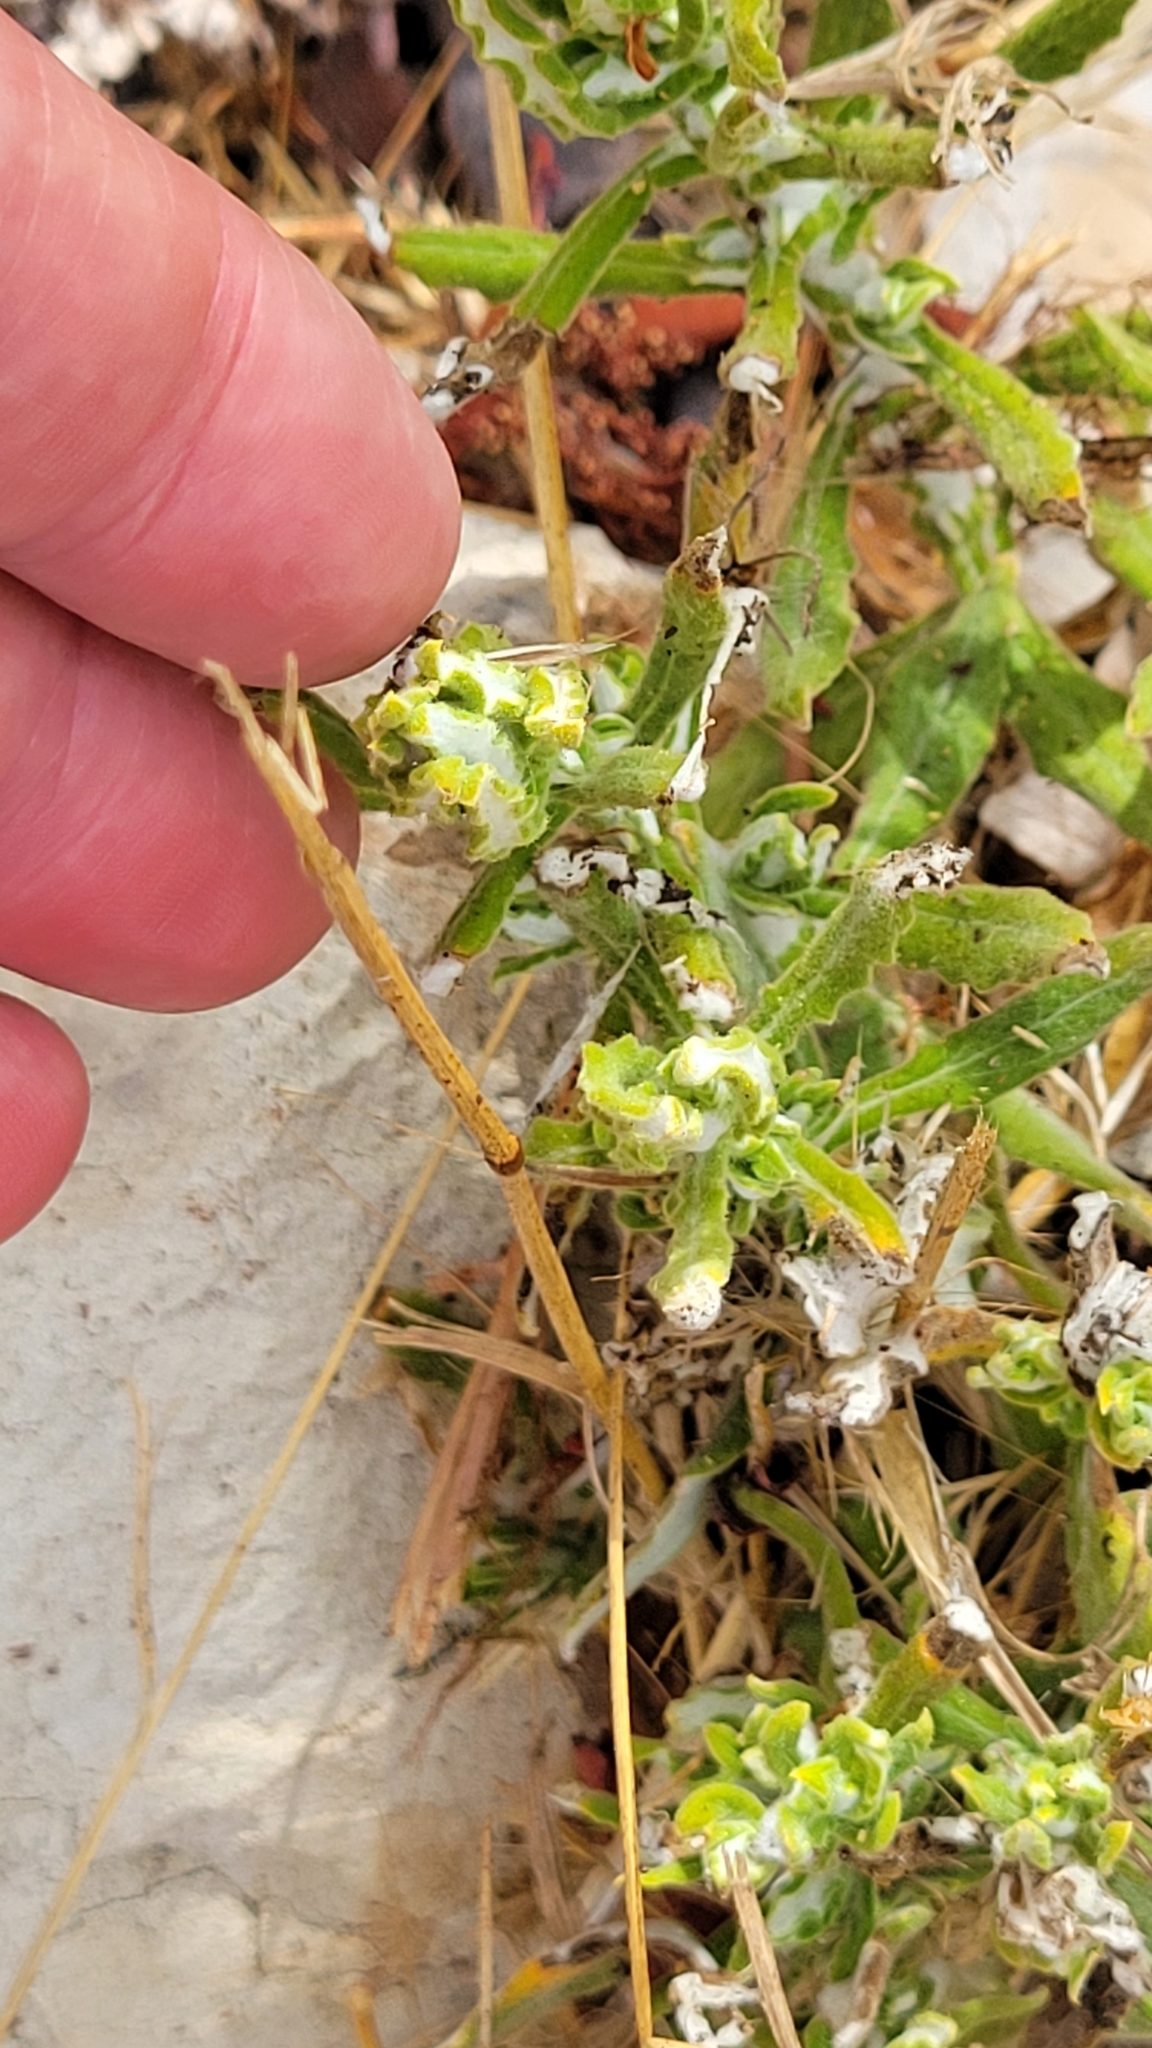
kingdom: Plantae
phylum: Tracheophyta
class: Magnoliopsida
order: Asterales
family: Asteraceae
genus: Pseudognaphalium
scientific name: Pseudognaphalium biolettii
